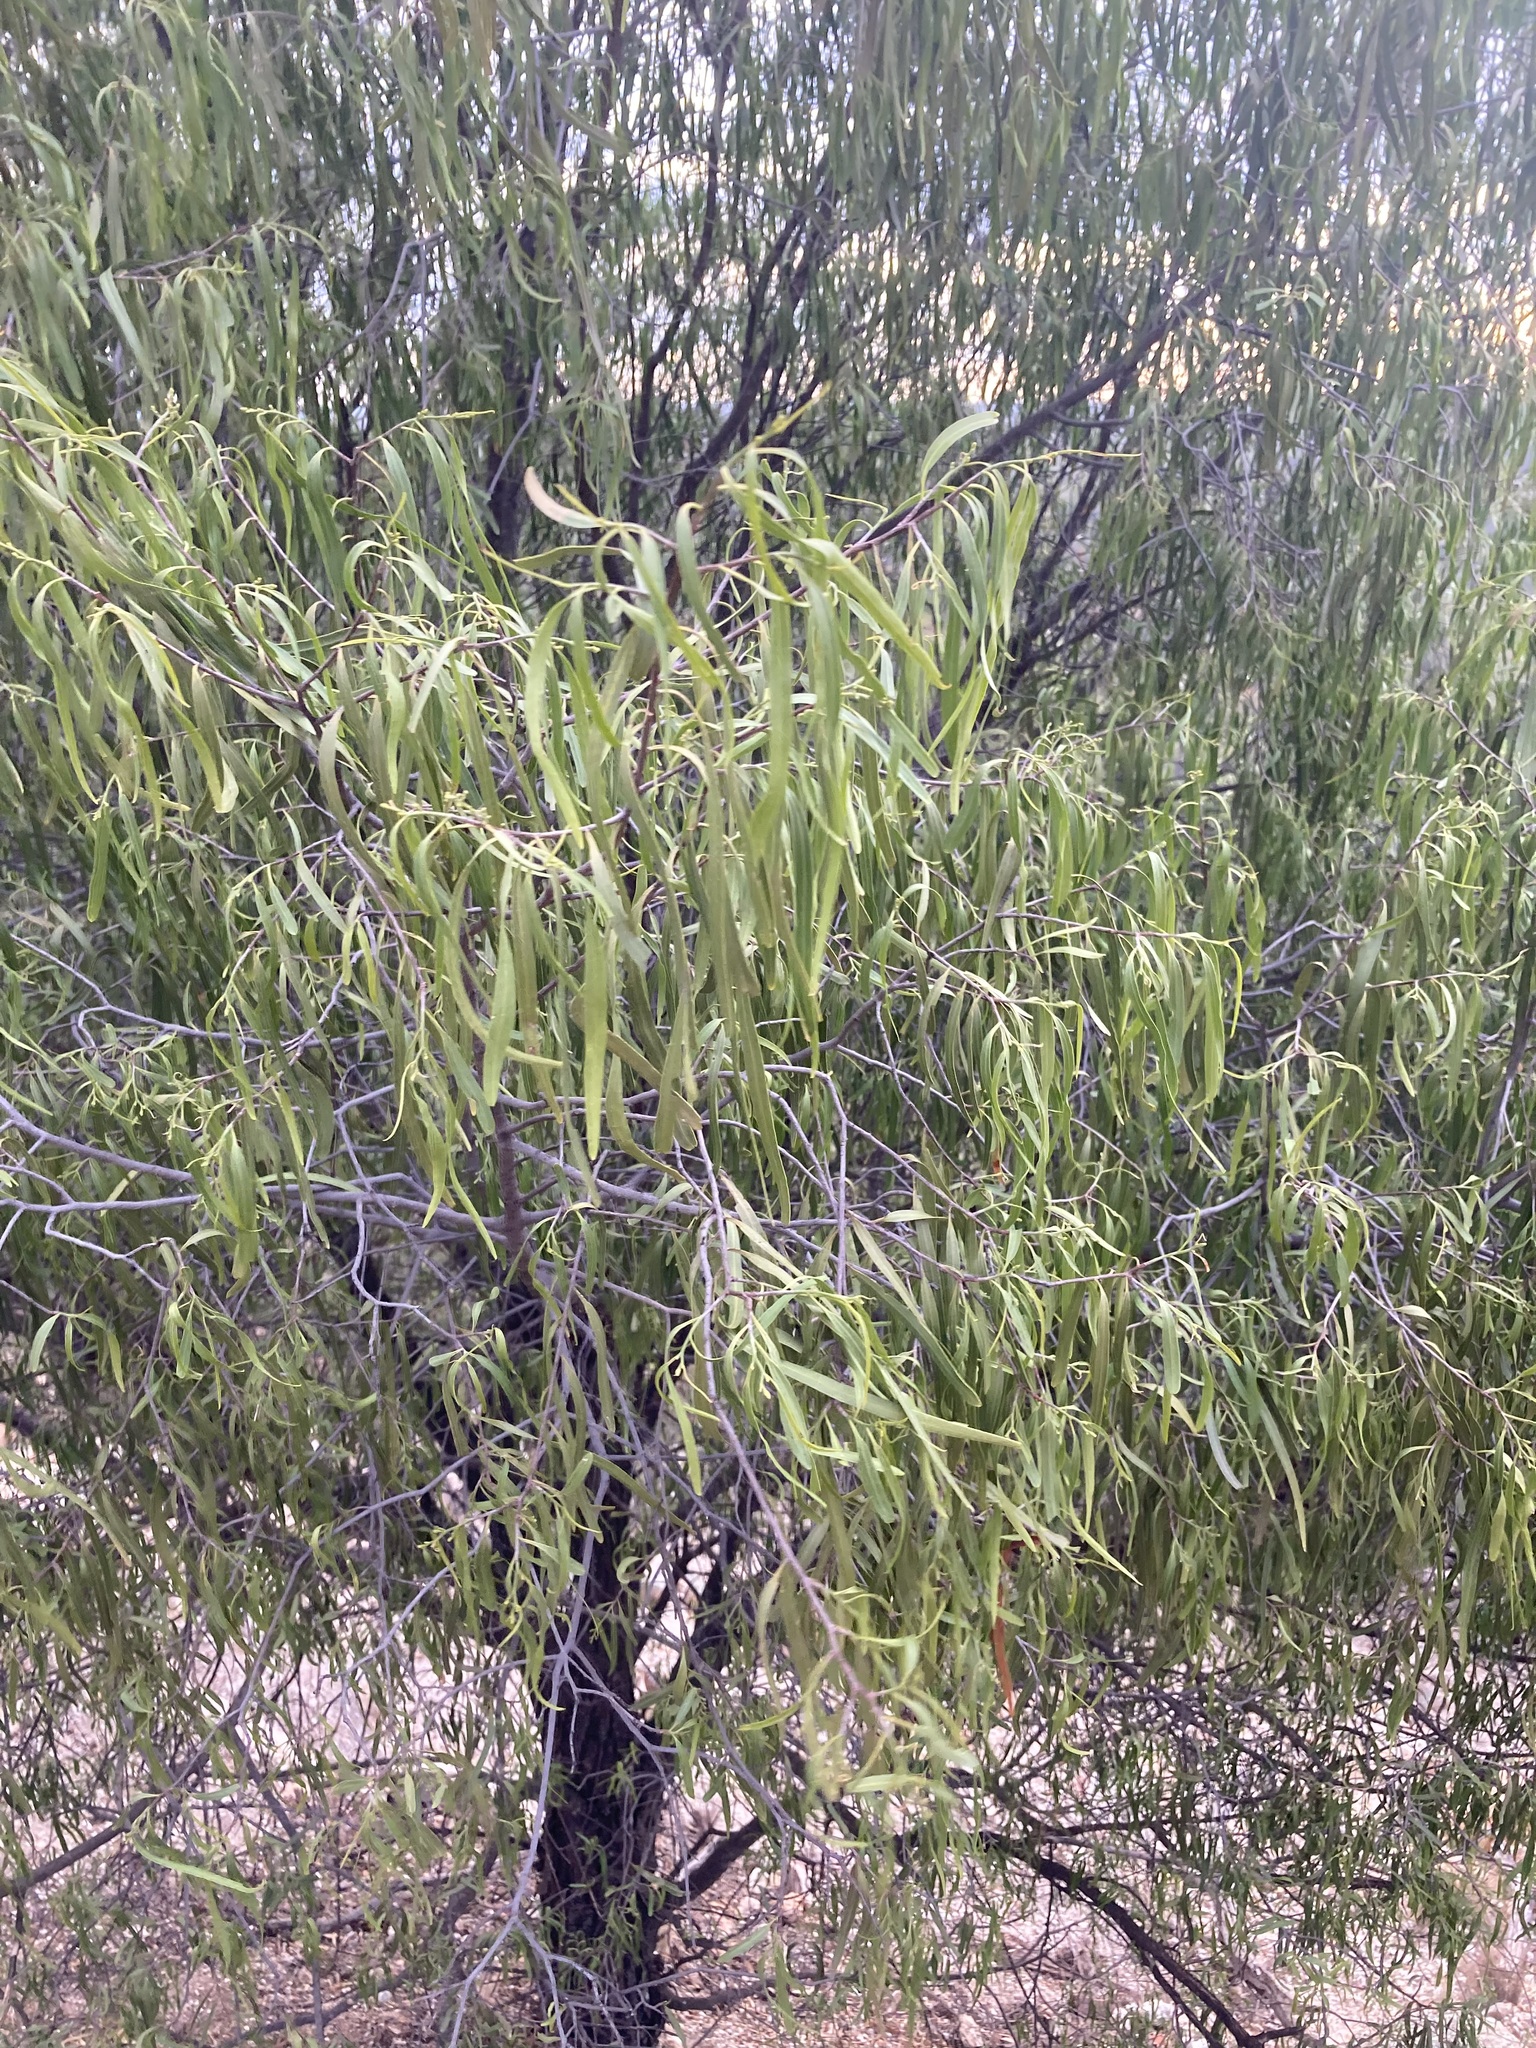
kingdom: Plantae
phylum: Tracheophyta
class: Magnoliopsida
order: Sapindales
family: Rutaceae
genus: Geijera
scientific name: Geijera parviflora
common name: Wilga
